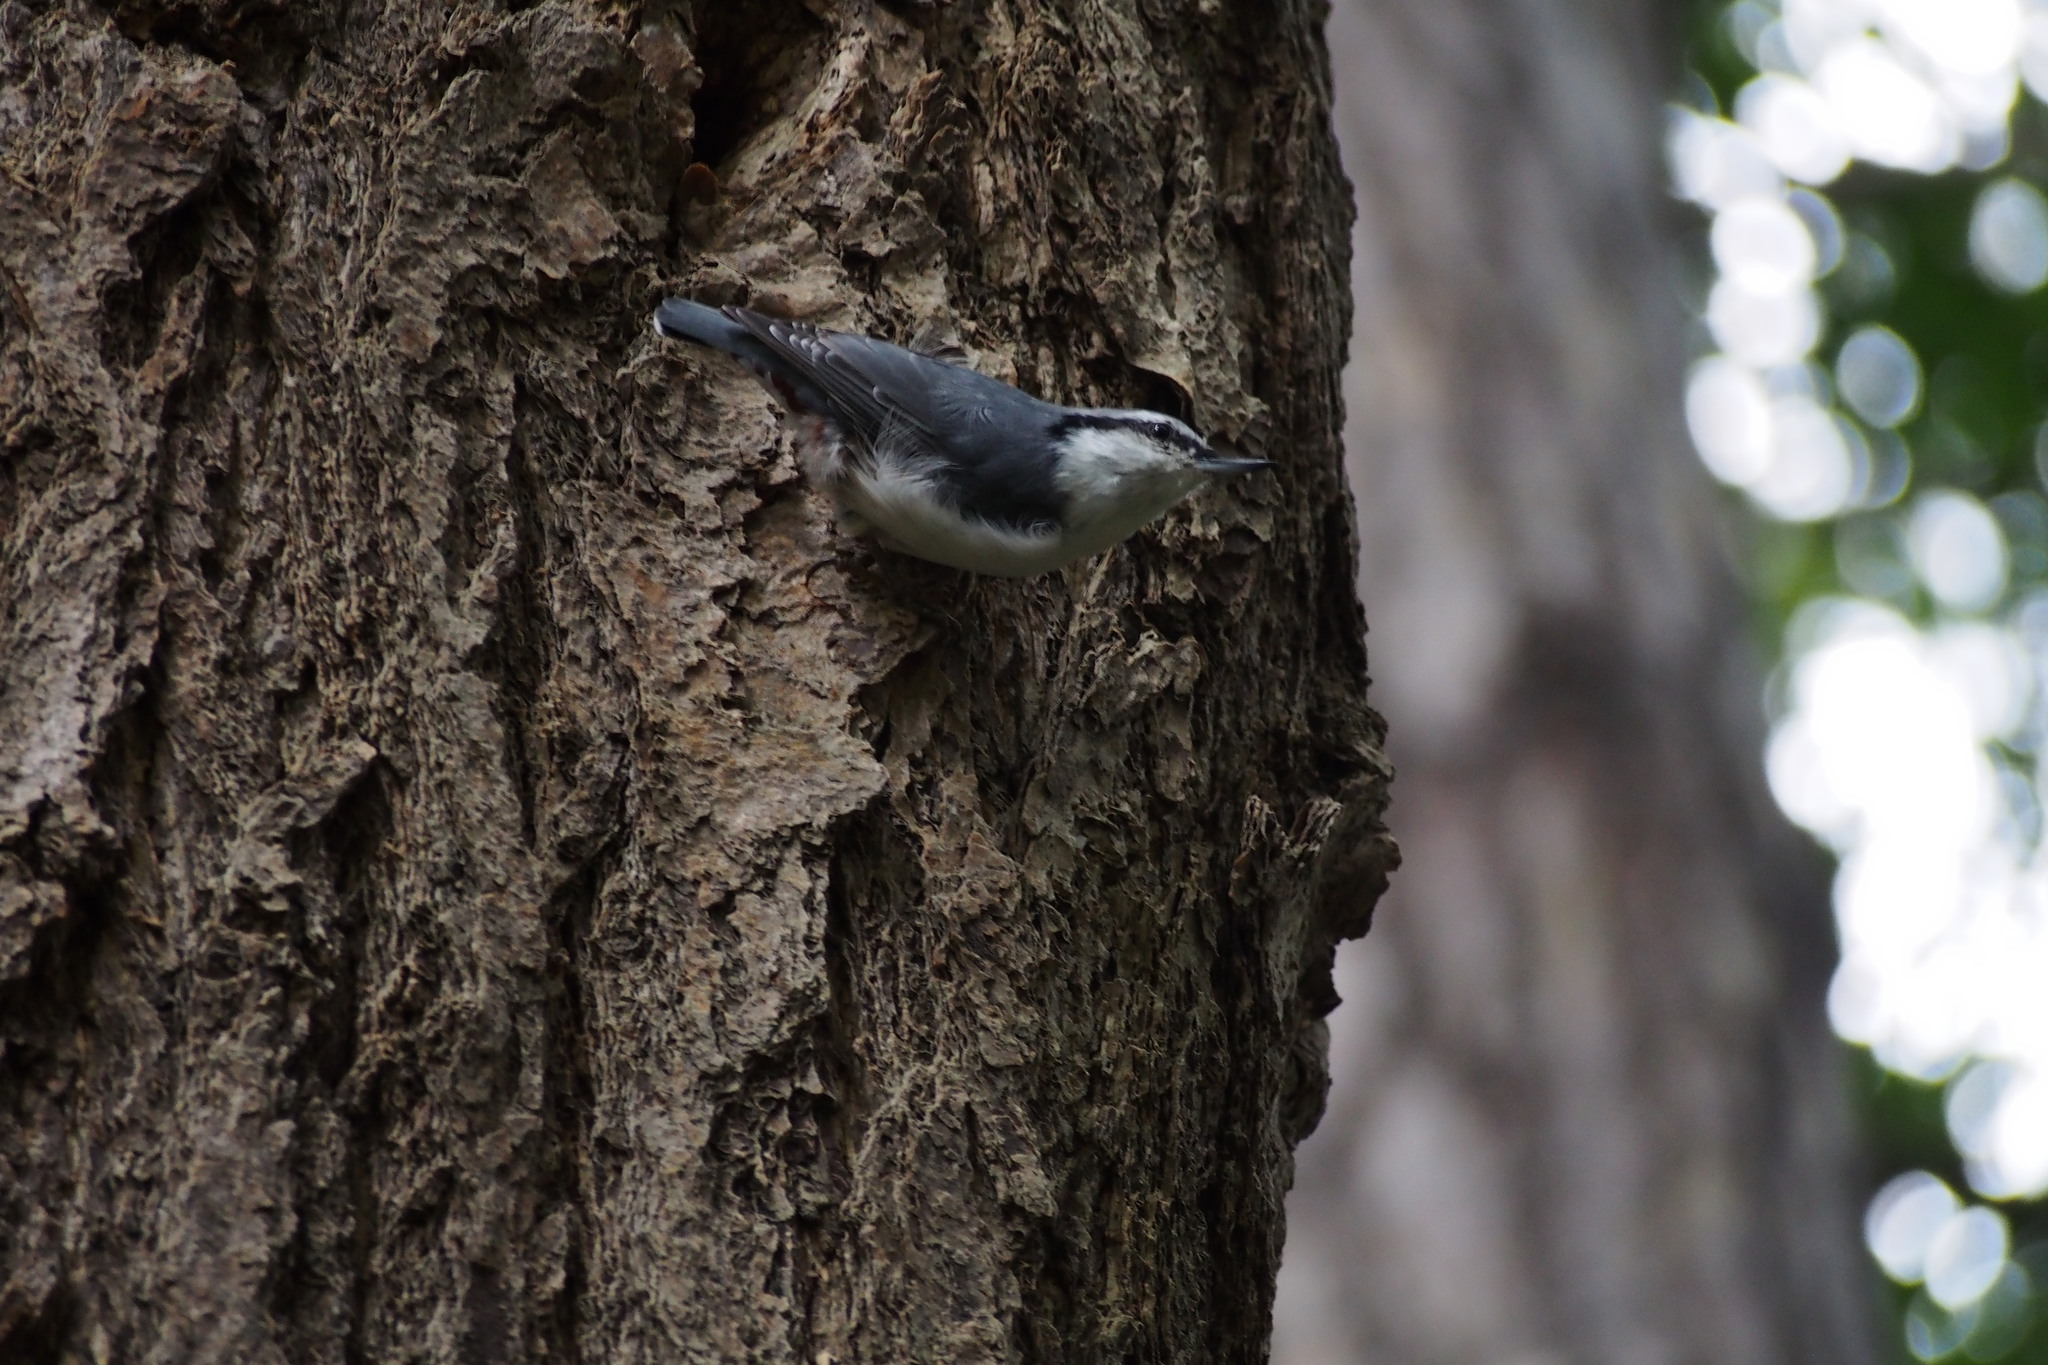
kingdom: Animalia
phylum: Chordata
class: Aves
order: Passeriformes
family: Sittidae
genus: Sitta
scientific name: Sitta europaea
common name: Eurasian nuthatch
